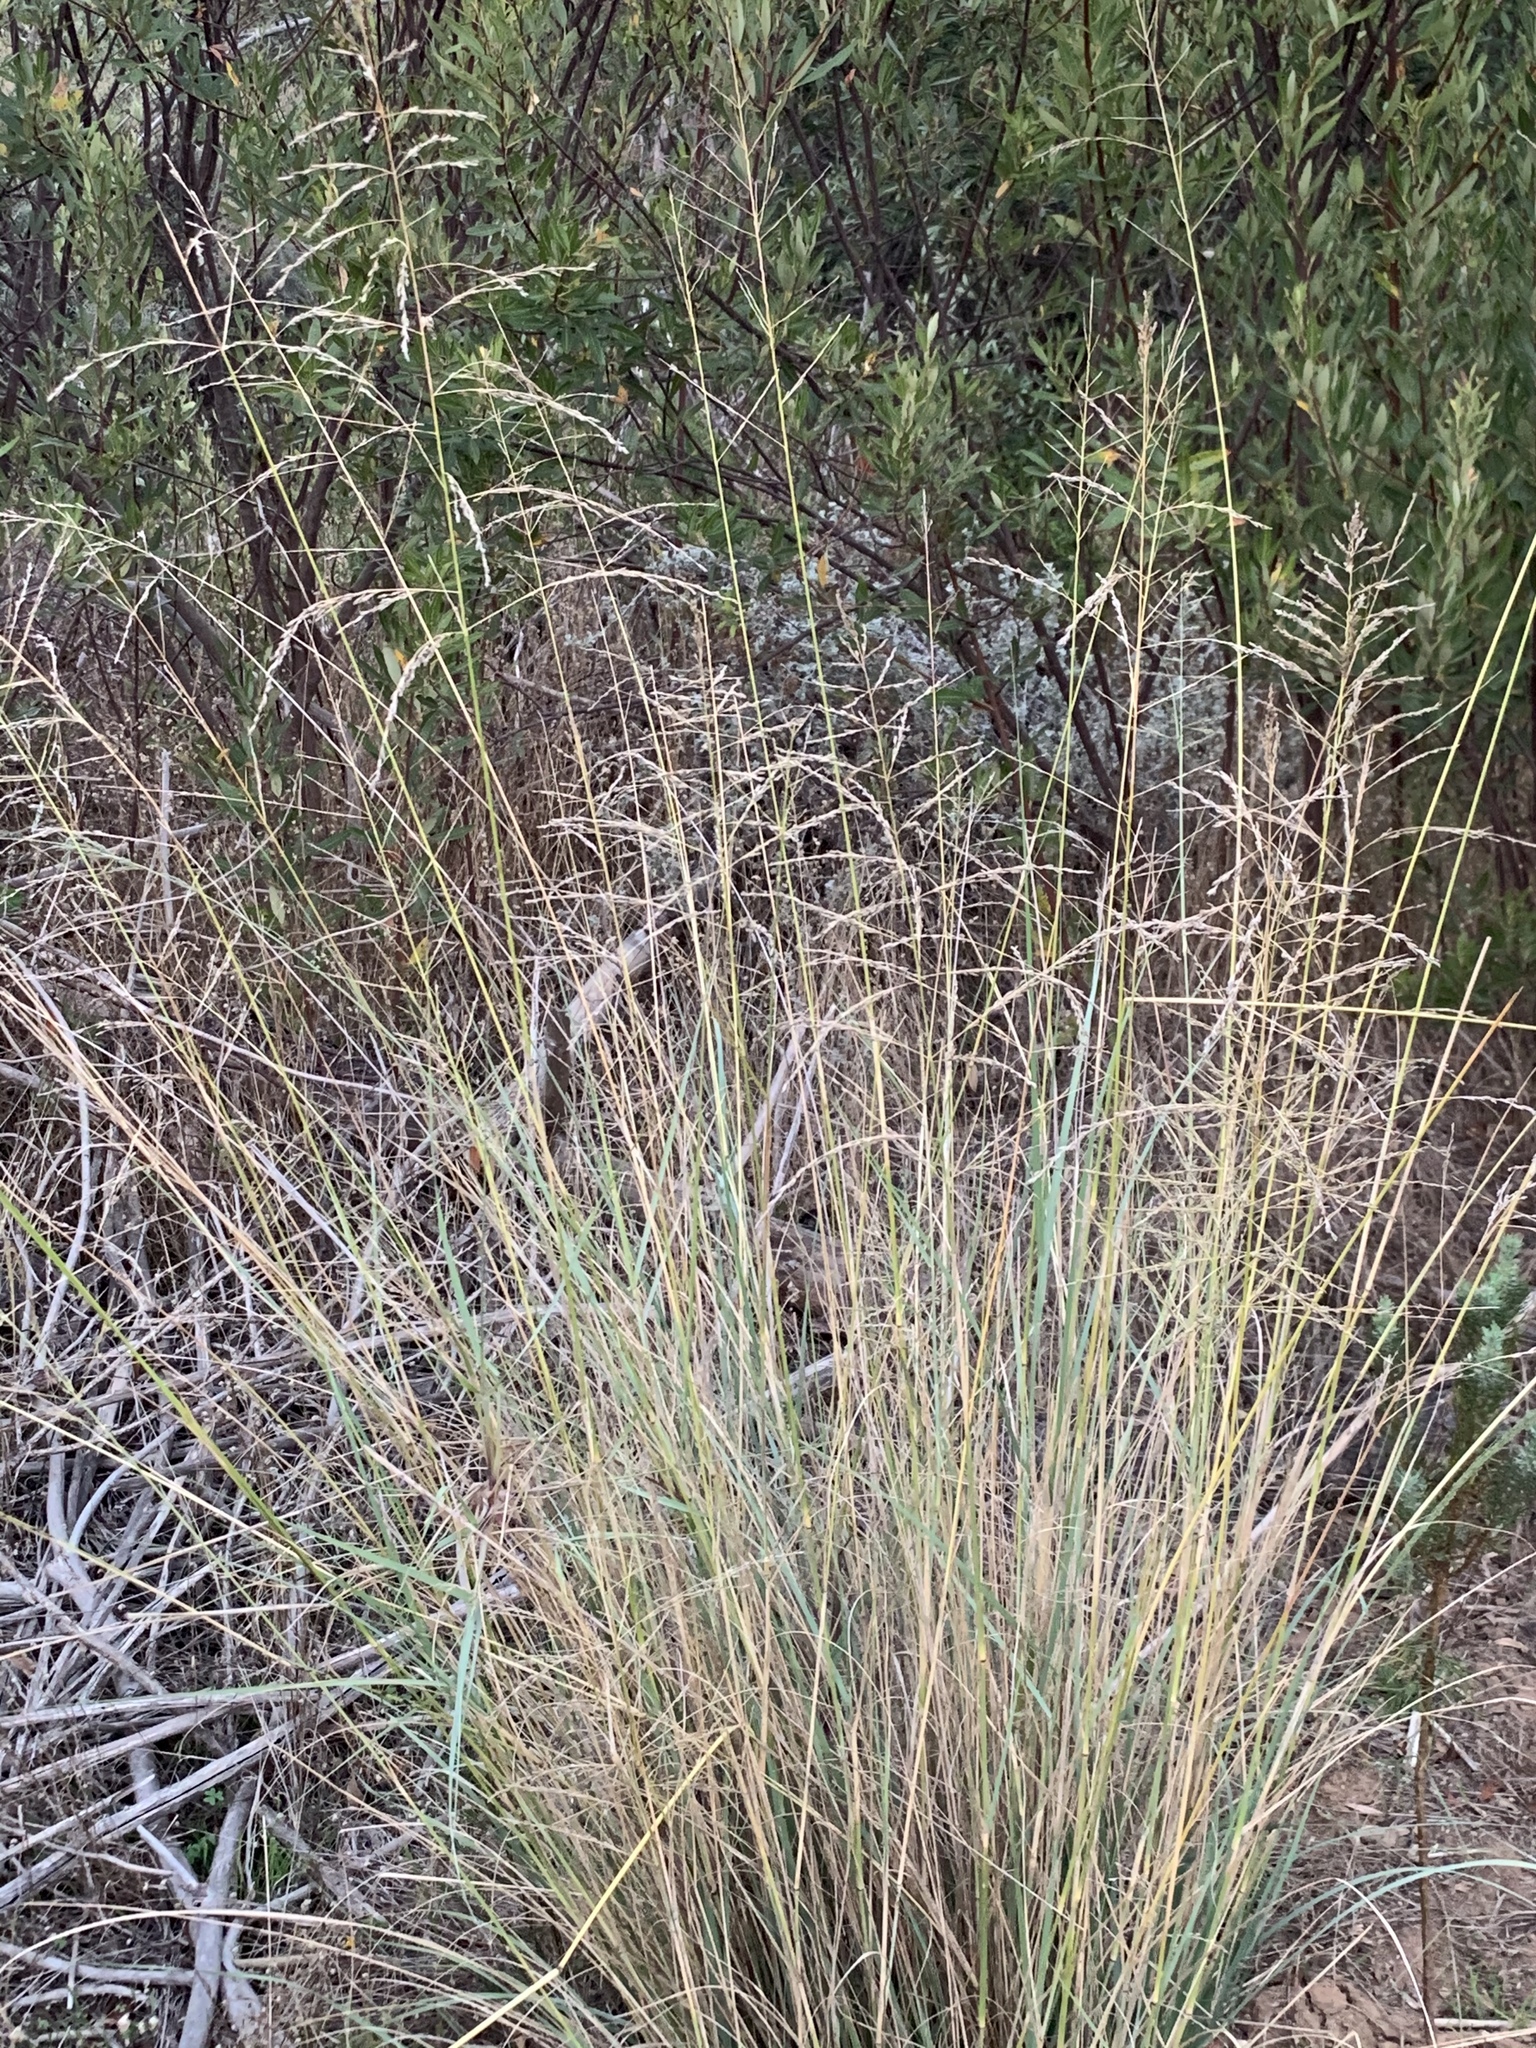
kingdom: Plantae
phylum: Tracheophyta
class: Liliopsida
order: Poales
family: Poaceae
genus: Eragrostis
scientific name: Eragrostis curvula
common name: African love-grass
